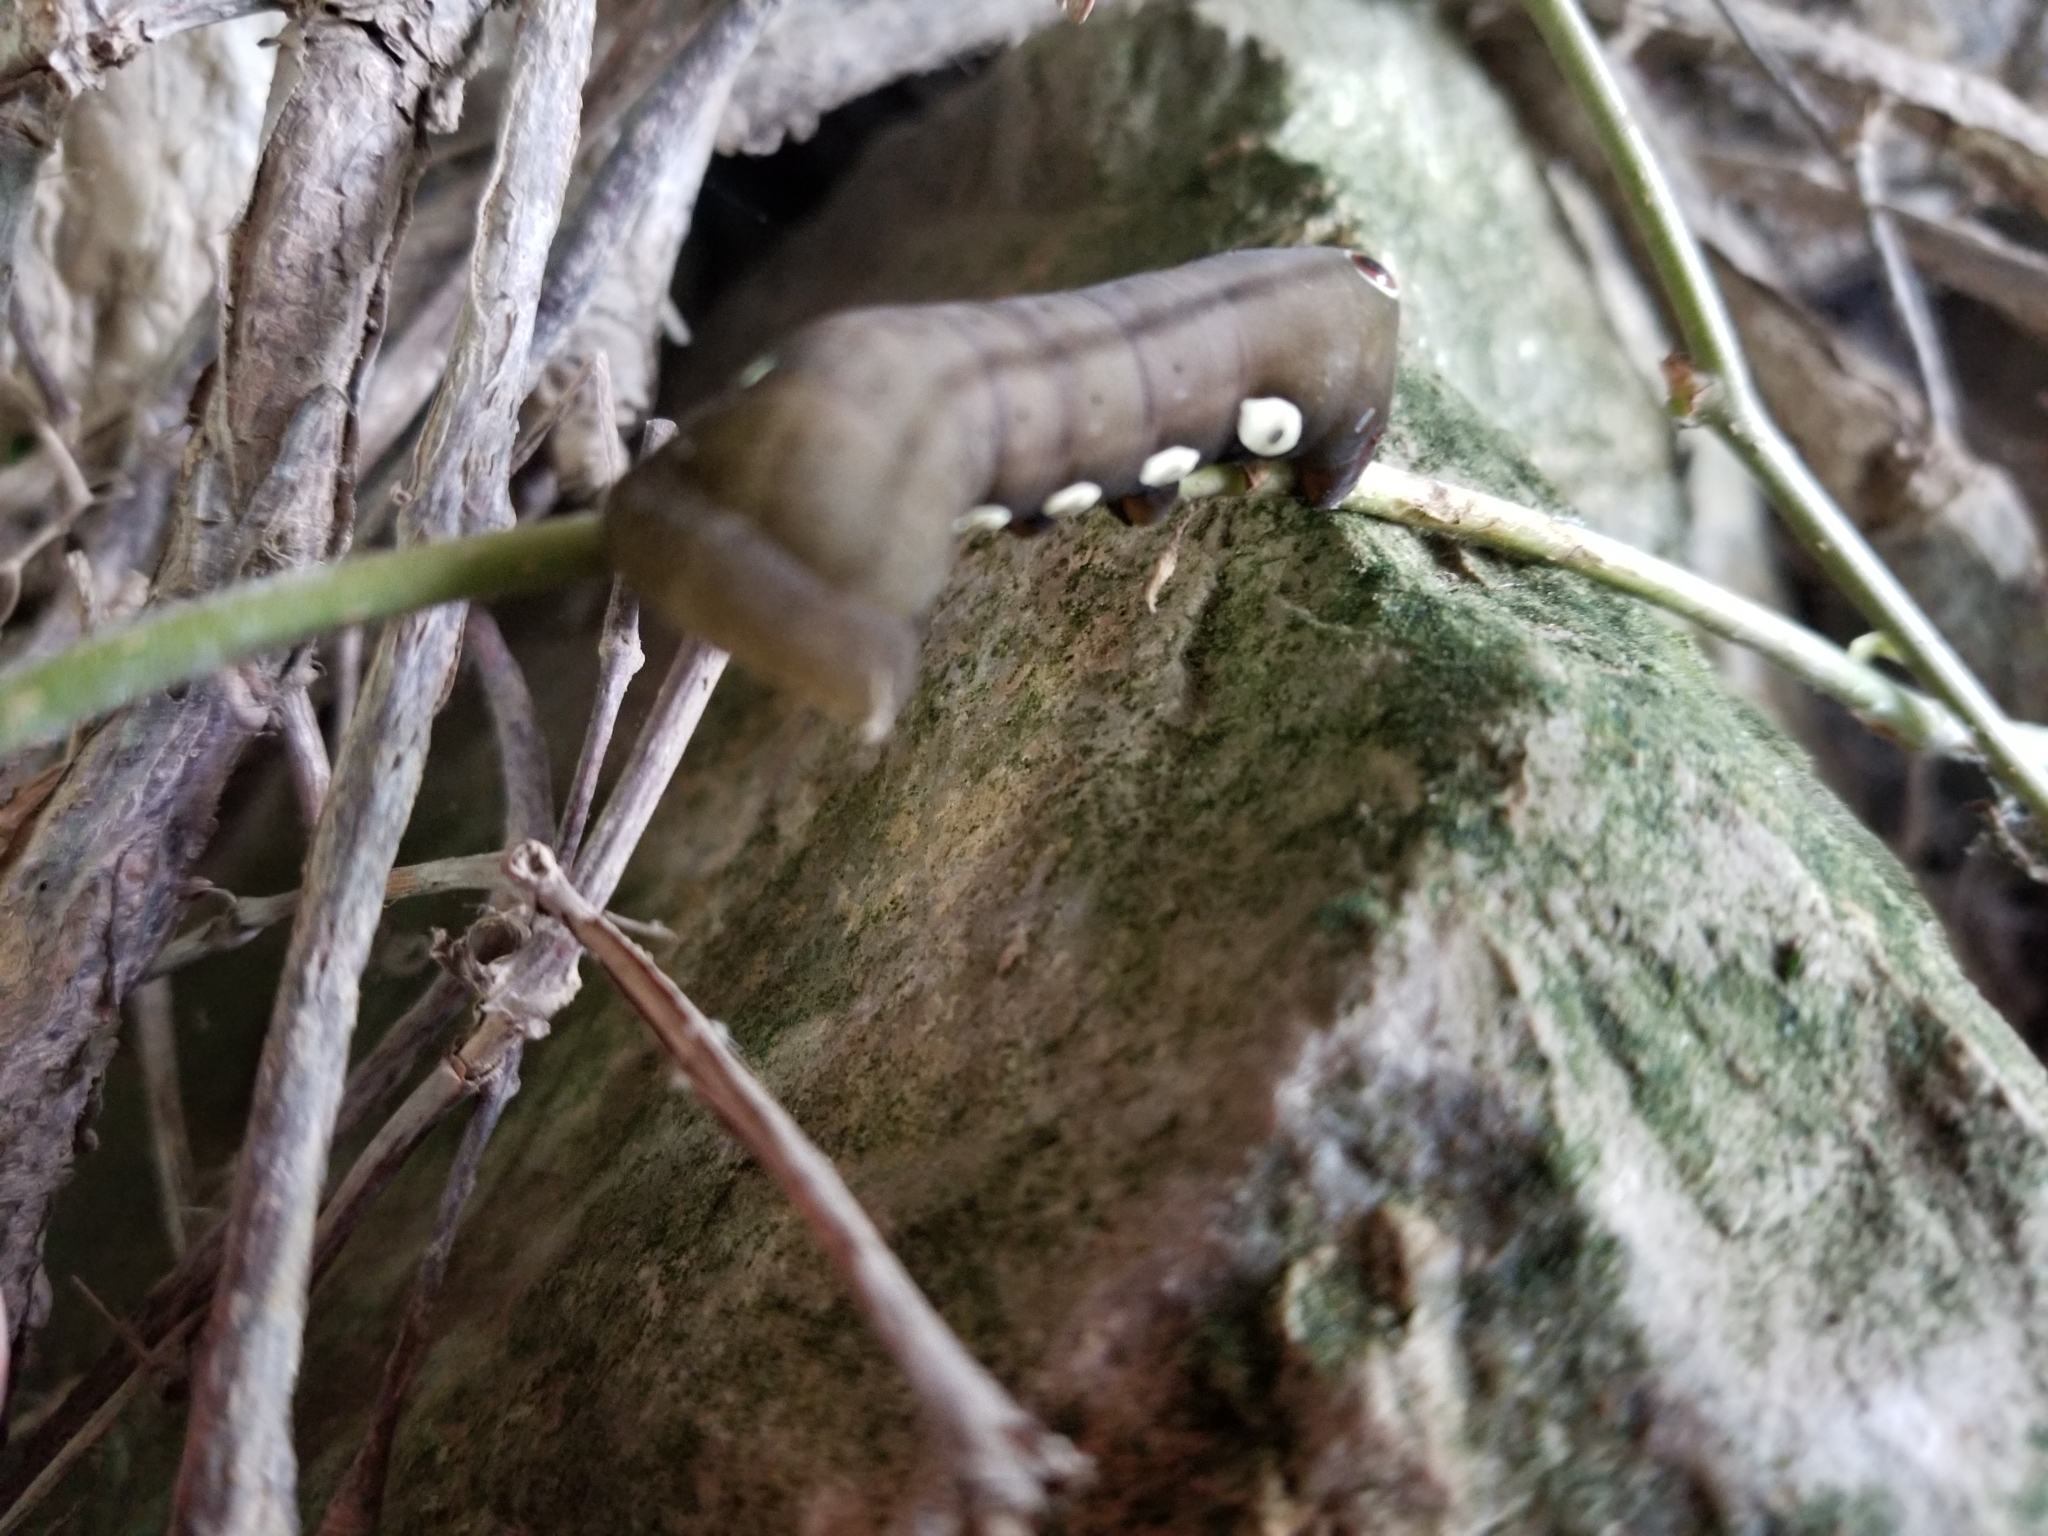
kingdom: Animalia
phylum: Arthropoda
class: Insecta
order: Lepidoptera
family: Sphingidae
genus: Eumorpha
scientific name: Eumorpha pandorus
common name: Pandora sphinx
